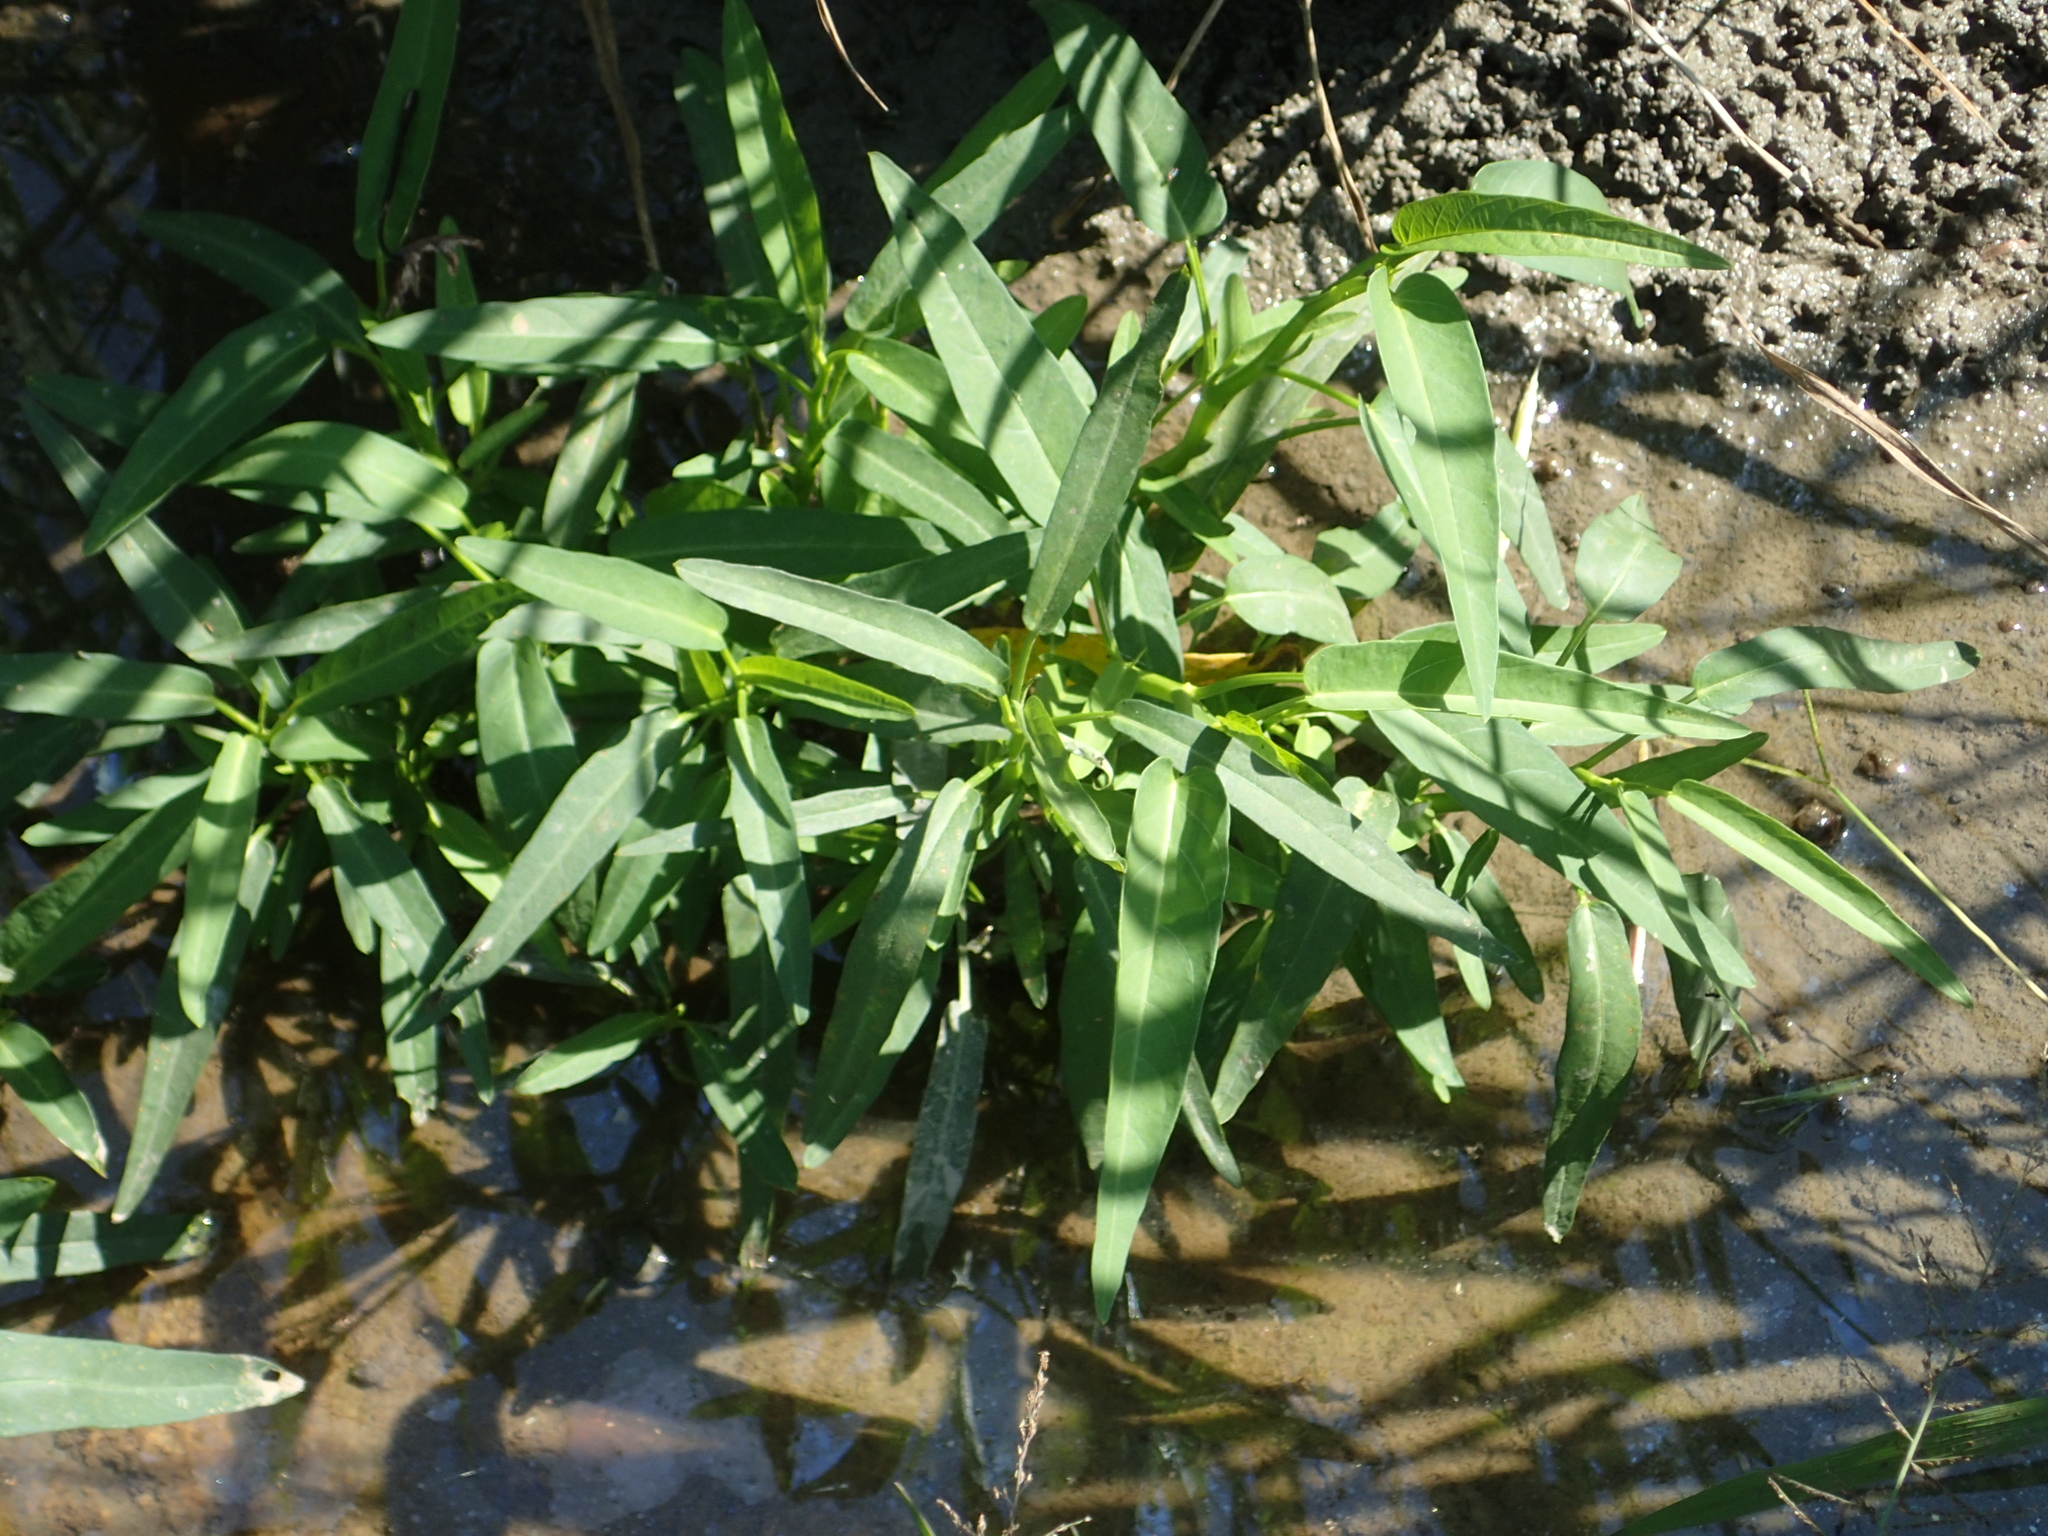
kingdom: Plantae
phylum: Tracheophyta
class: Magnoliopsida
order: Solanales
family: Convolvulaceae
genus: Ipomoea
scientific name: Ipomoea aquatica
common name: Swamp morning-glory
